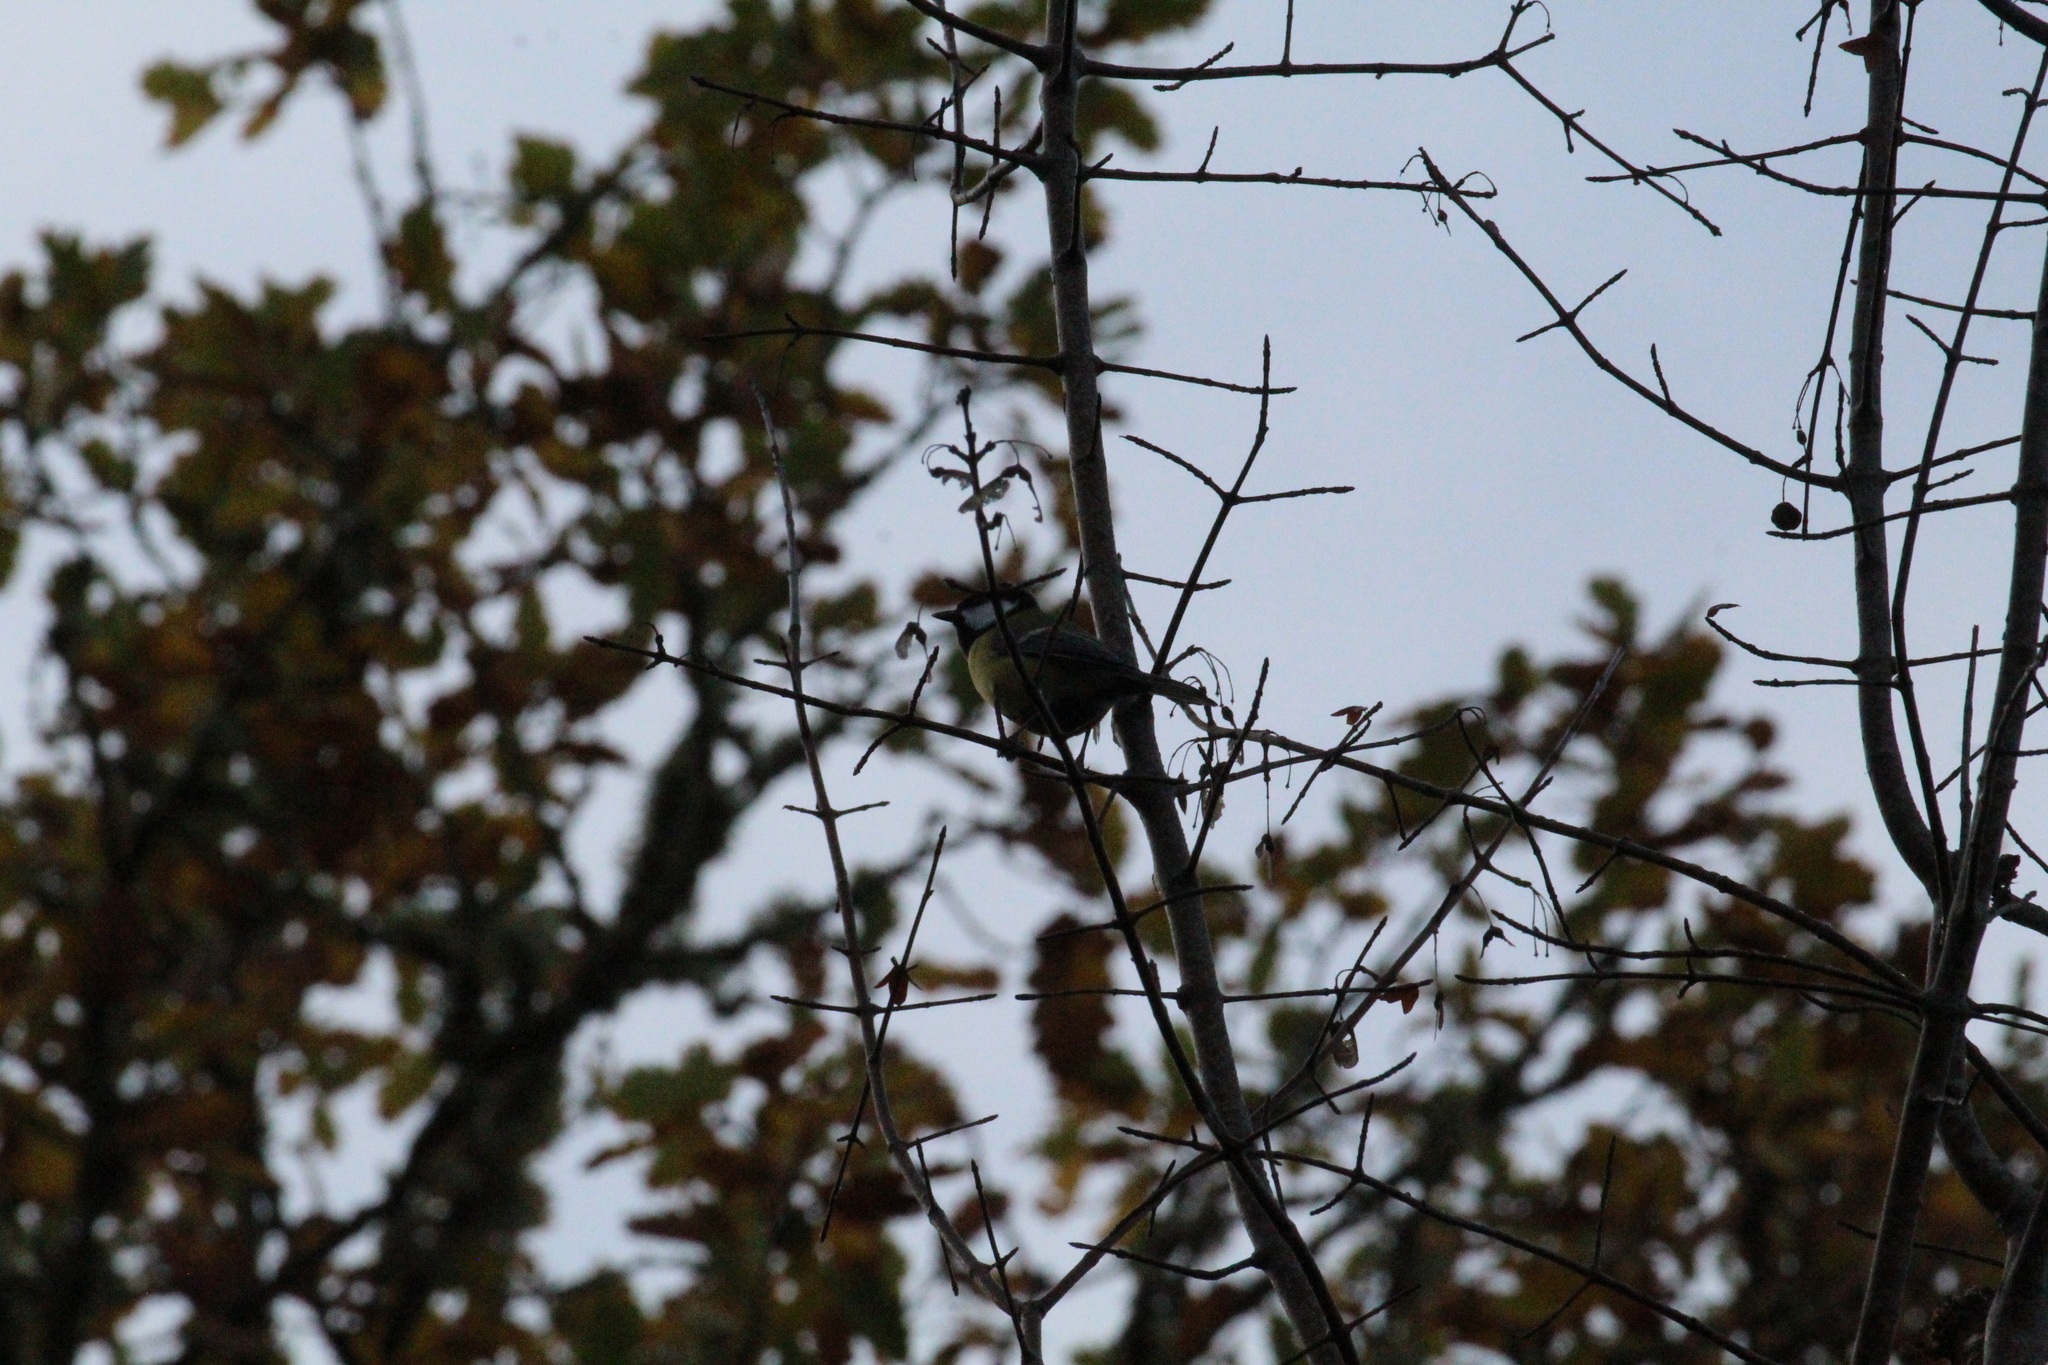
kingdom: Animalia
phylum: Chordata
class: Aves
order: Passeriformes
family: Paridae
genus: Parus
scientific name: Parus major
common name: Great tit
